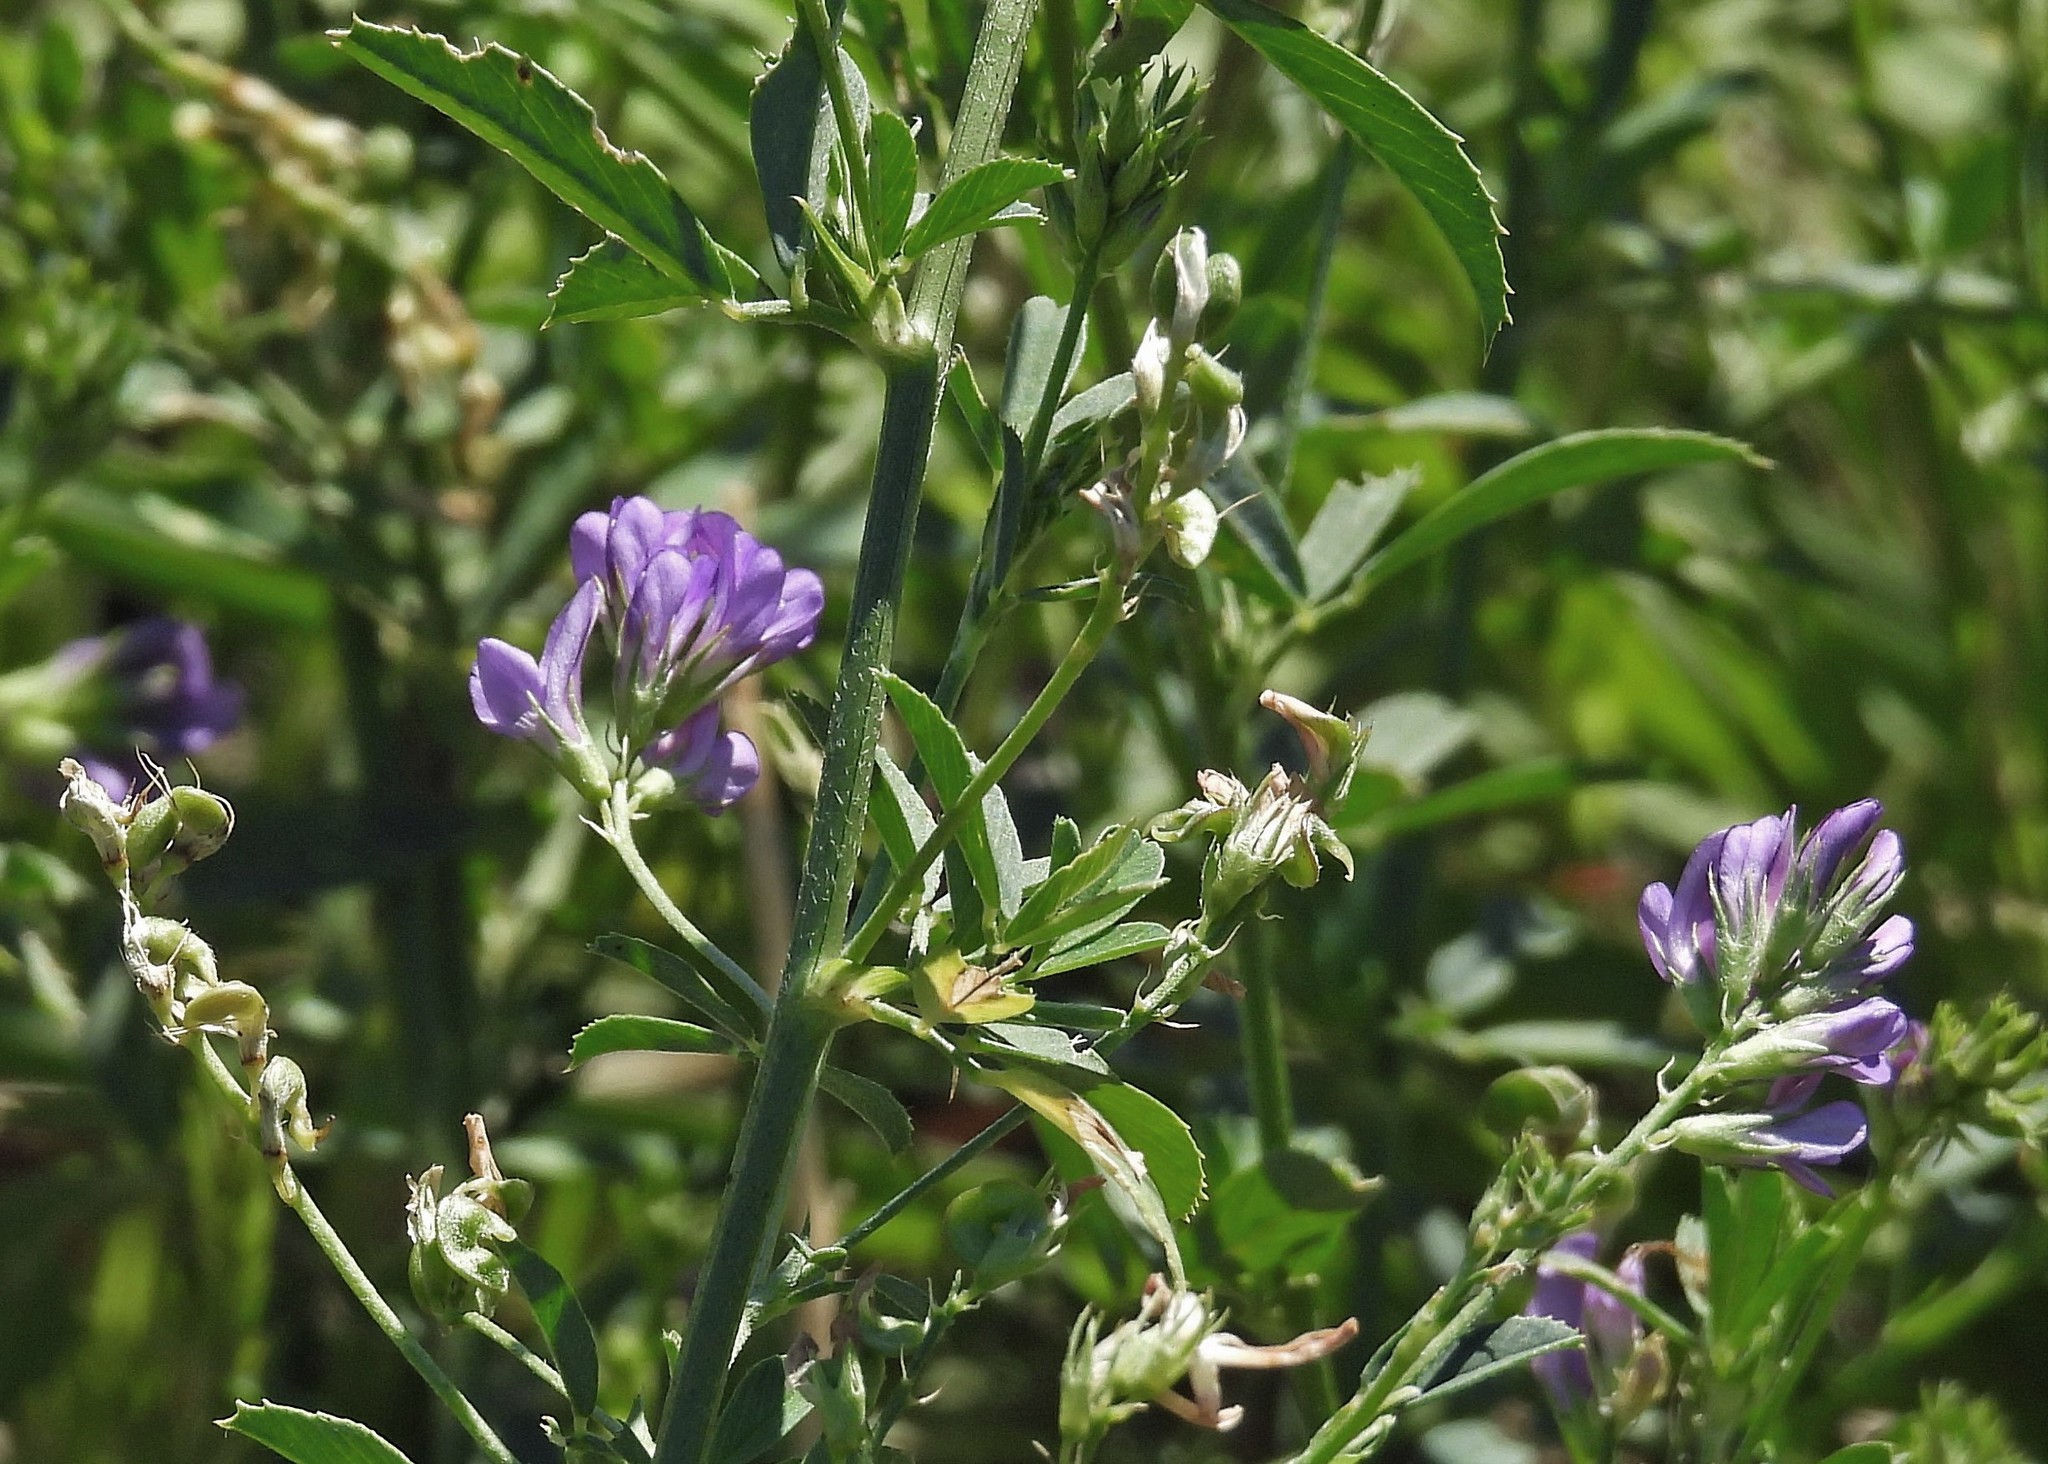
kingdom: Plantae
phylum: Tracheophyta
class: Magnoliopsida
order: Fabales
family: Fabaceae
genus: Medicago
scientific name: Medicago sativa
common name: Alfalfa
